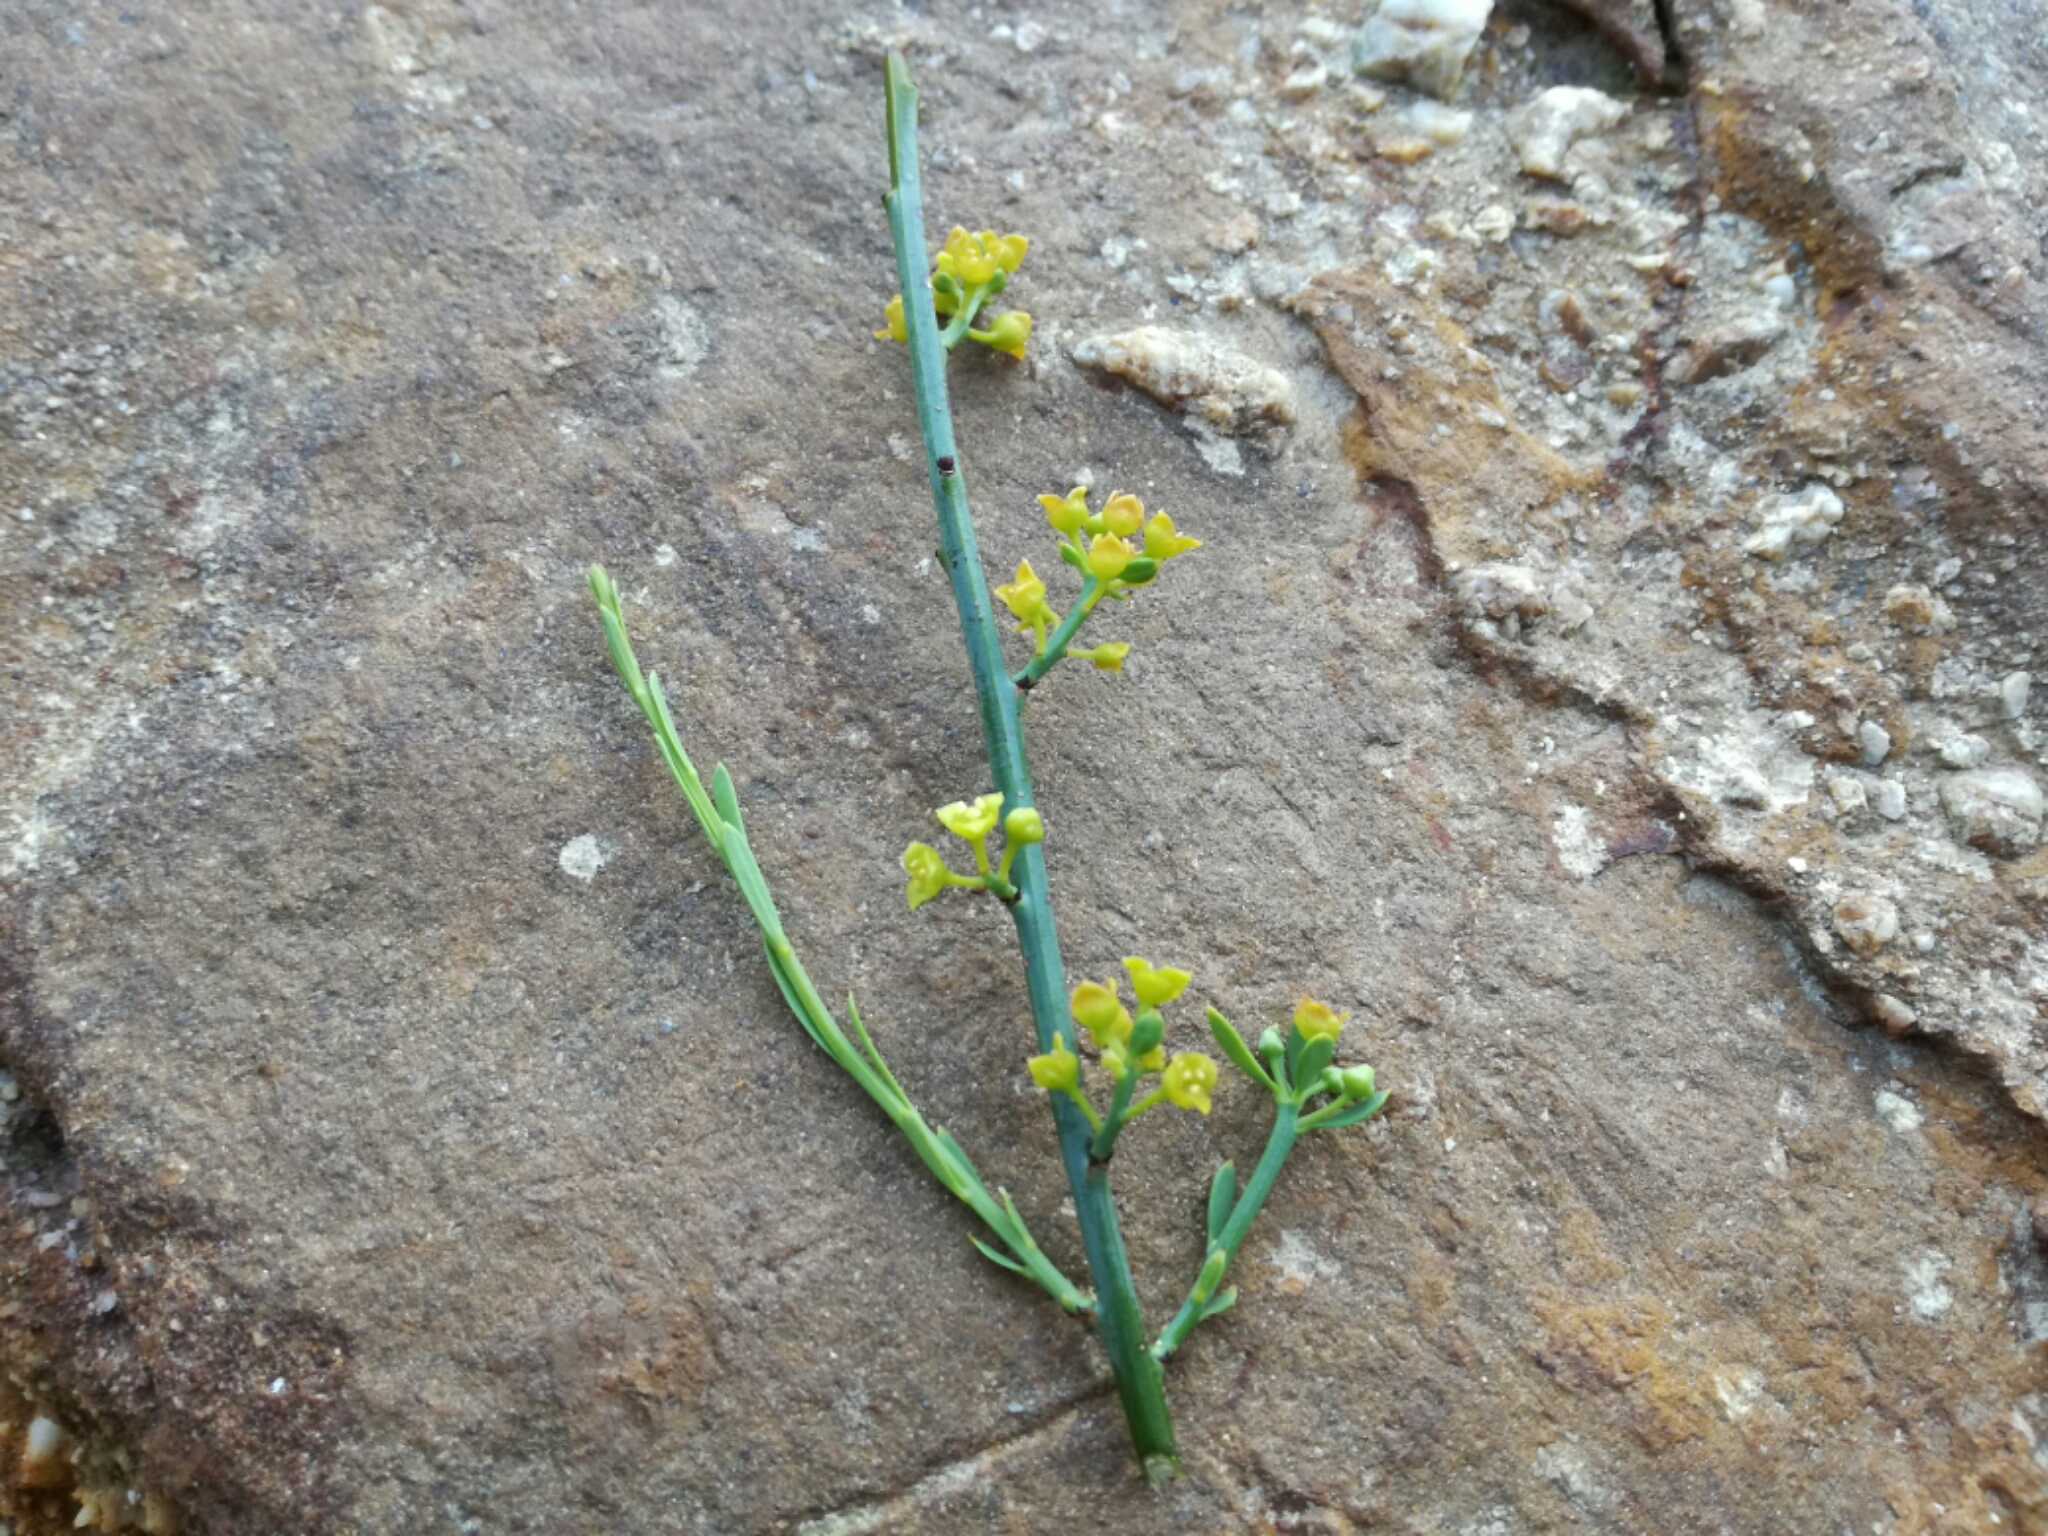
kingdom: Plantae
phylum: Tracheophyta
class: Magnoliopsida
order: Santalales
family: Santalaceae
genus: Osyris
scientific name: Osyris alba
